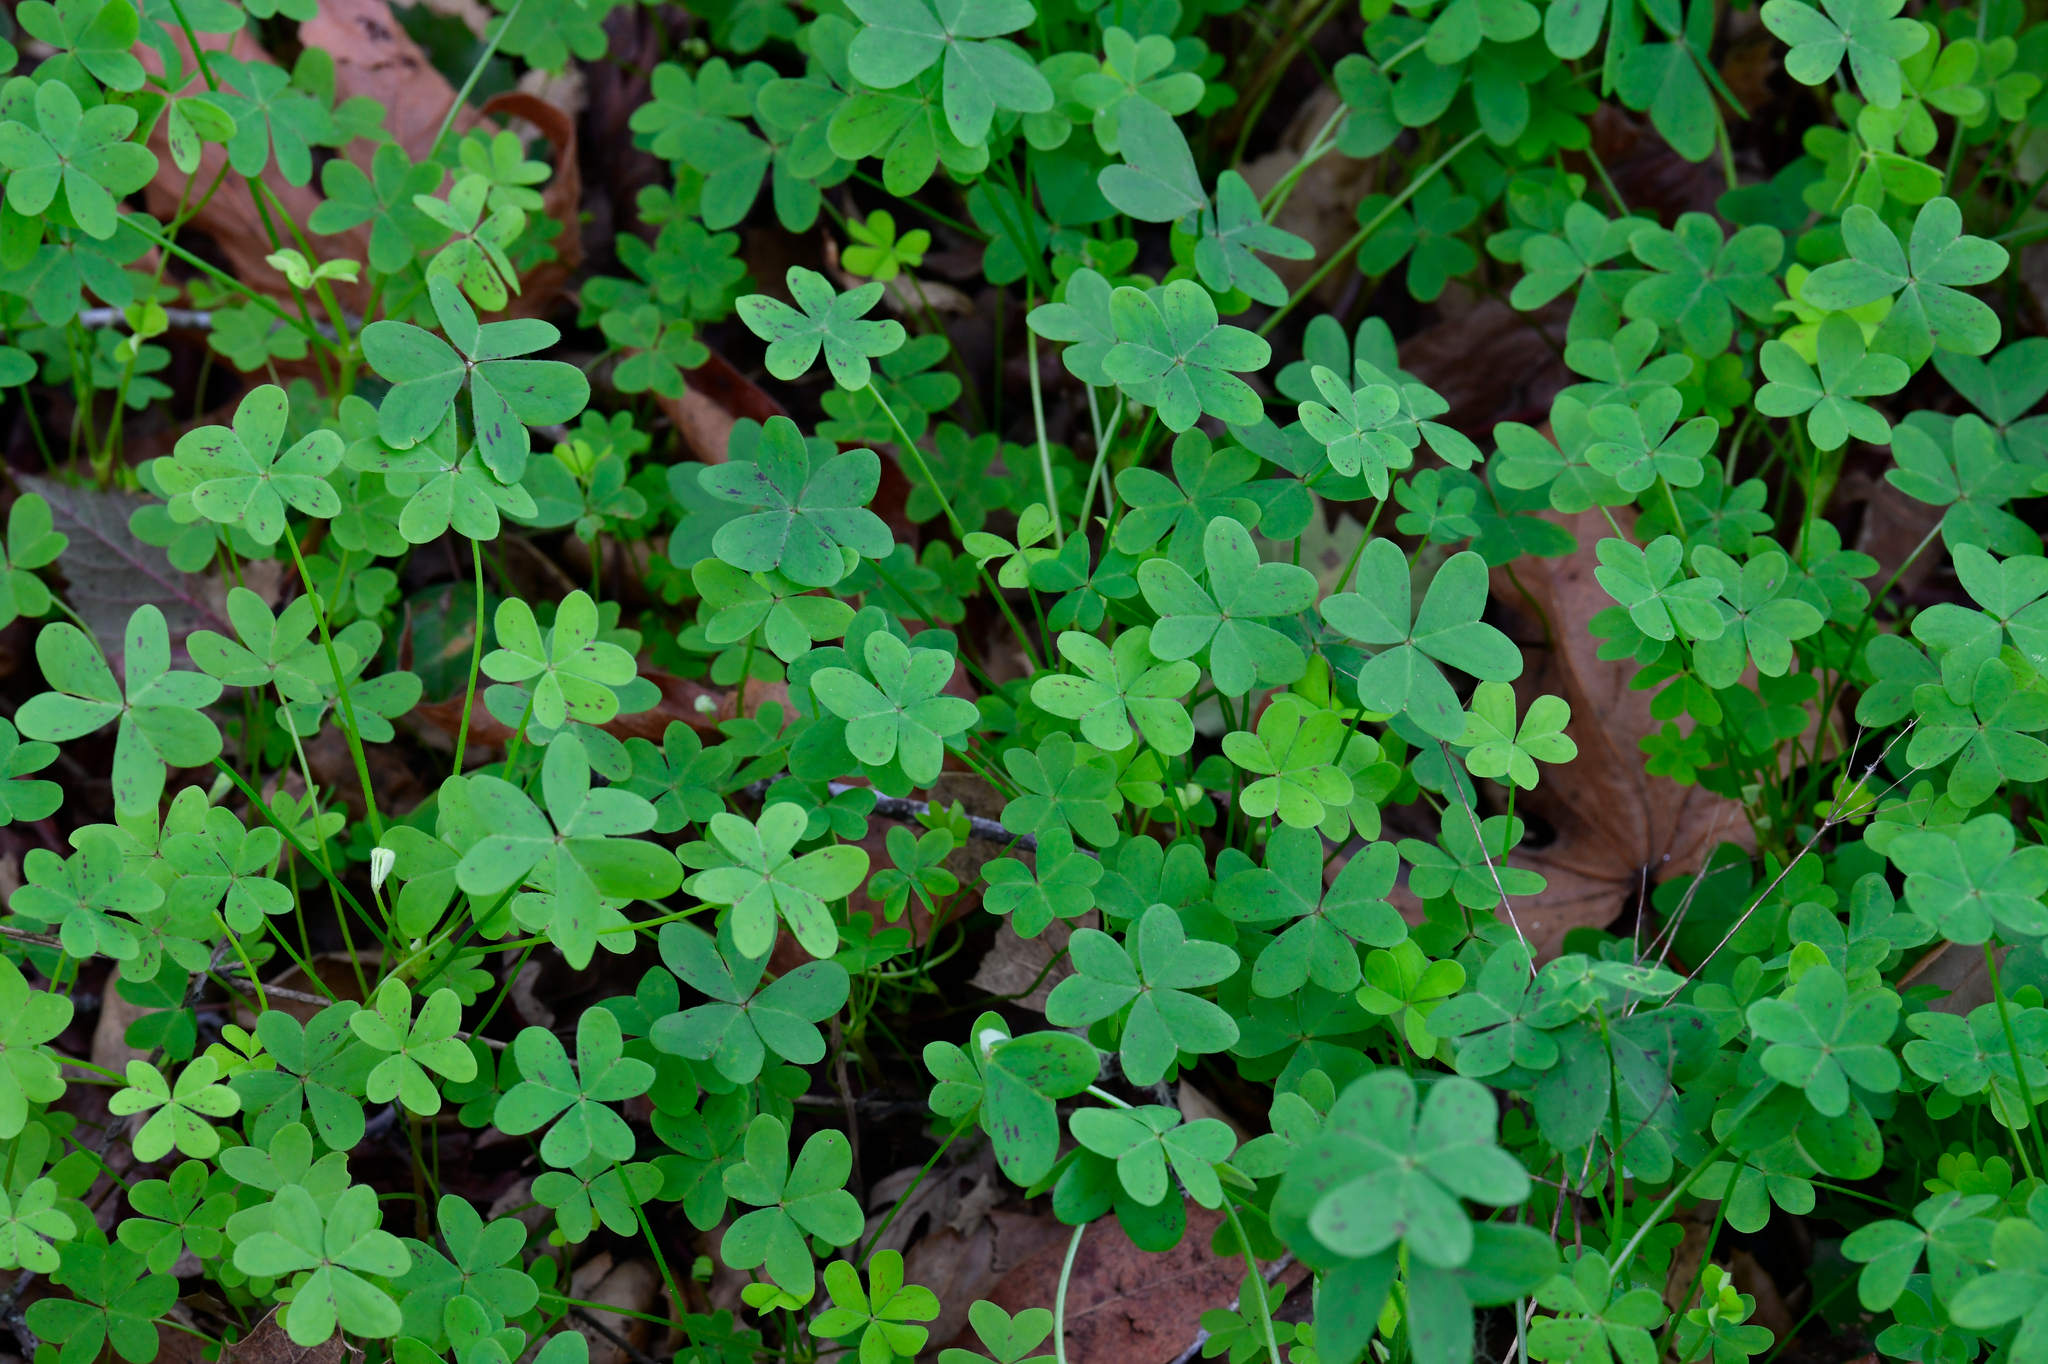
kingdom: Plantae
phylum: Tracheophyta
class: Magnoliopsida
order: Oxalidales
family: Oxalidaceae
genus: Oxalis
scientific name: Oxalis pes-caprae
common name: Bermuda-buttercup
